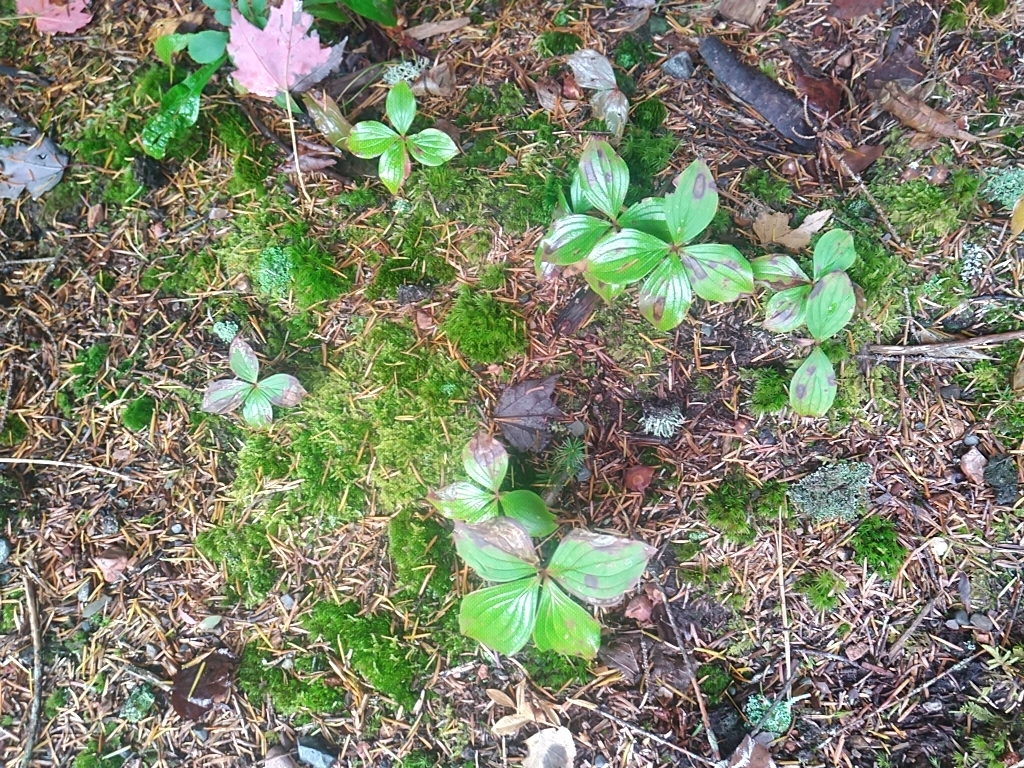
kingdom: Plantae
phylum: Tracheophyta
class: Magnoliopsida
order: Cornales
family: Cornaceae
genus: Cornus
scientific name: Cornus canadensis
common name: Creeping dogwood
